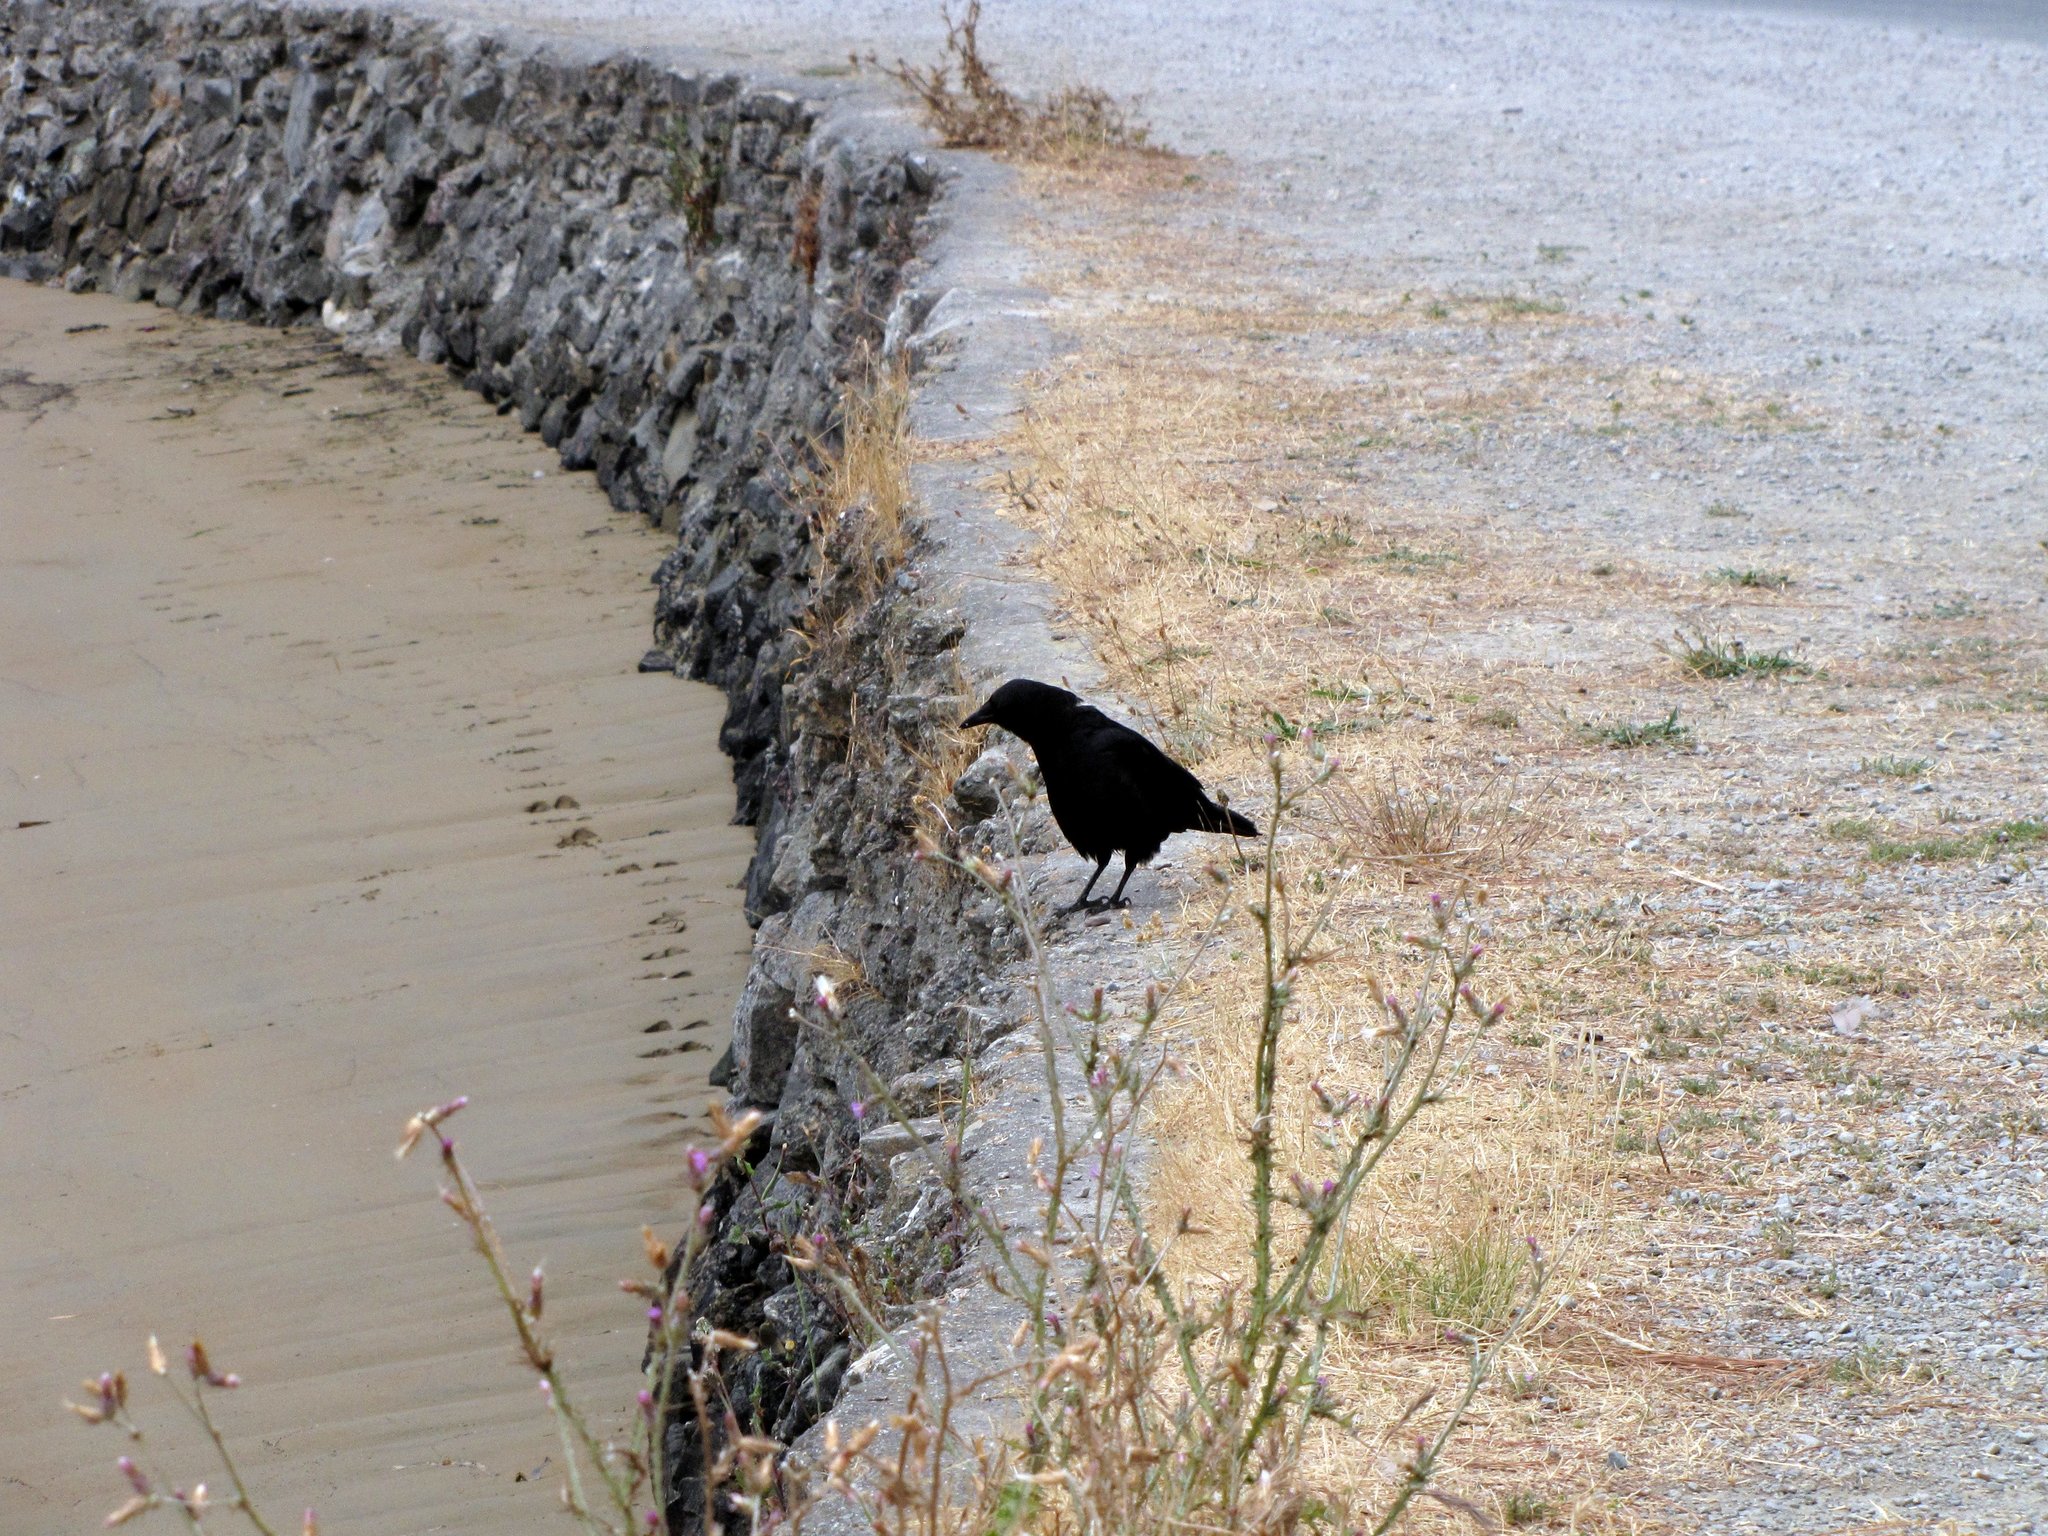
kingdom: Animalia
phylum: Chordata
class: Aves
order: Passeriformes
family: Corvidae
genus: Corvus
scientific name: Corvus brachyrhynchos
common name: American crow
